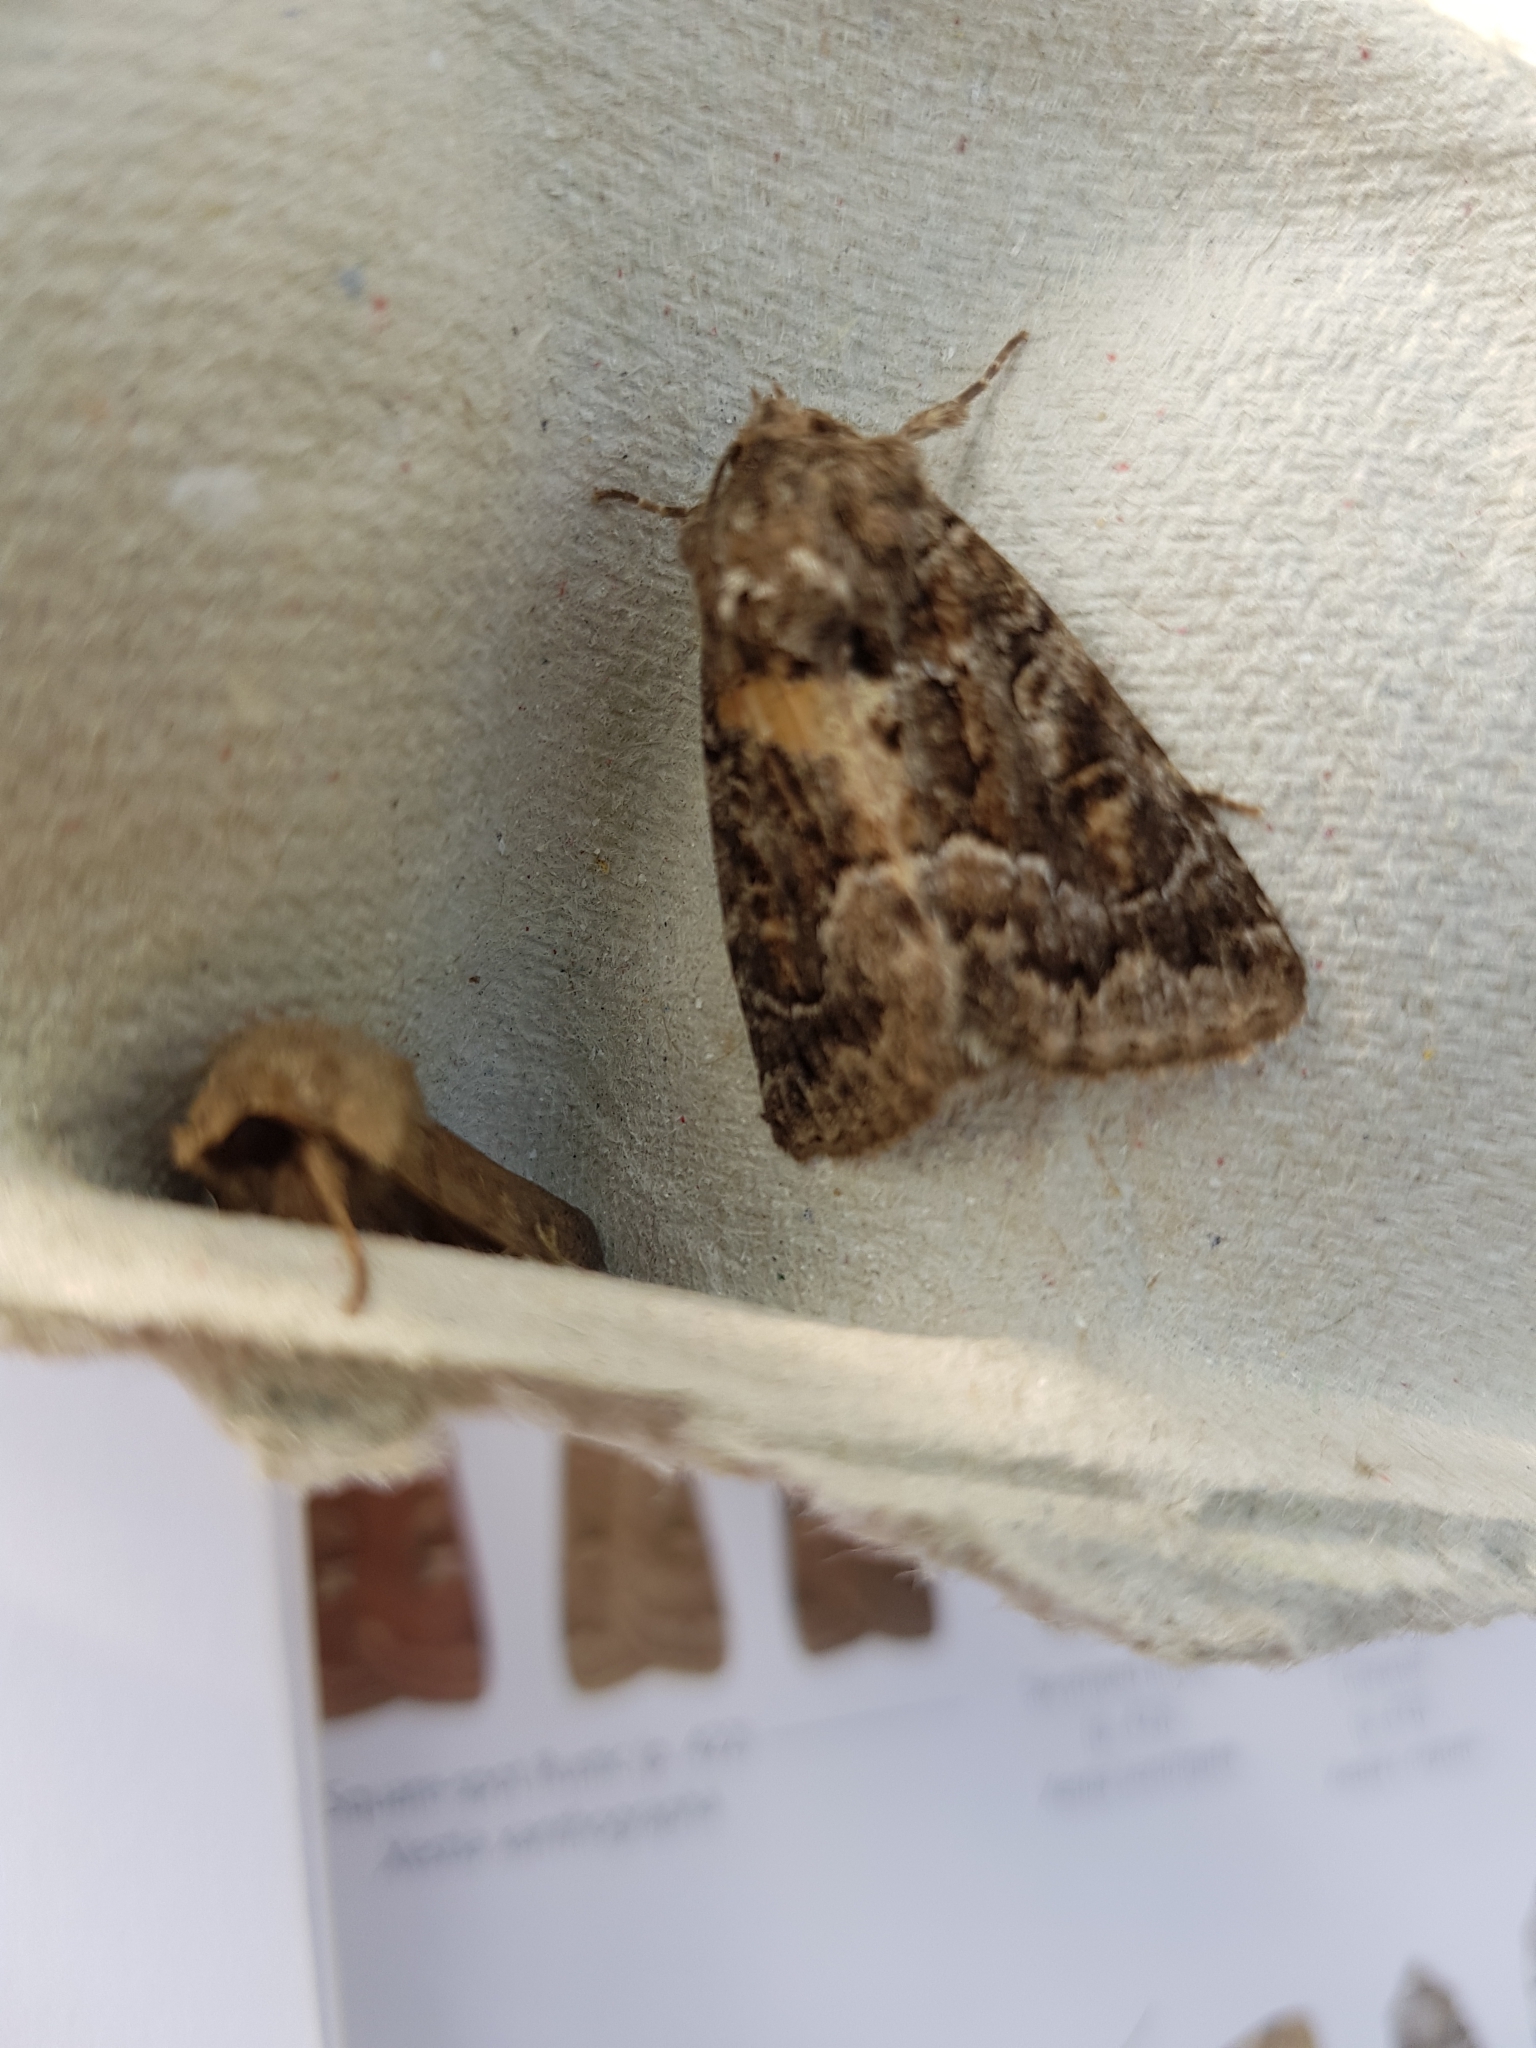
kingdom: Animalia
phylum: Arthropoda
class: Insecta
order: Lepidoptera
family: Noctuidae
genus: Thalpophila
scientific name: Thalpophila matura
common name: Straw underwing
